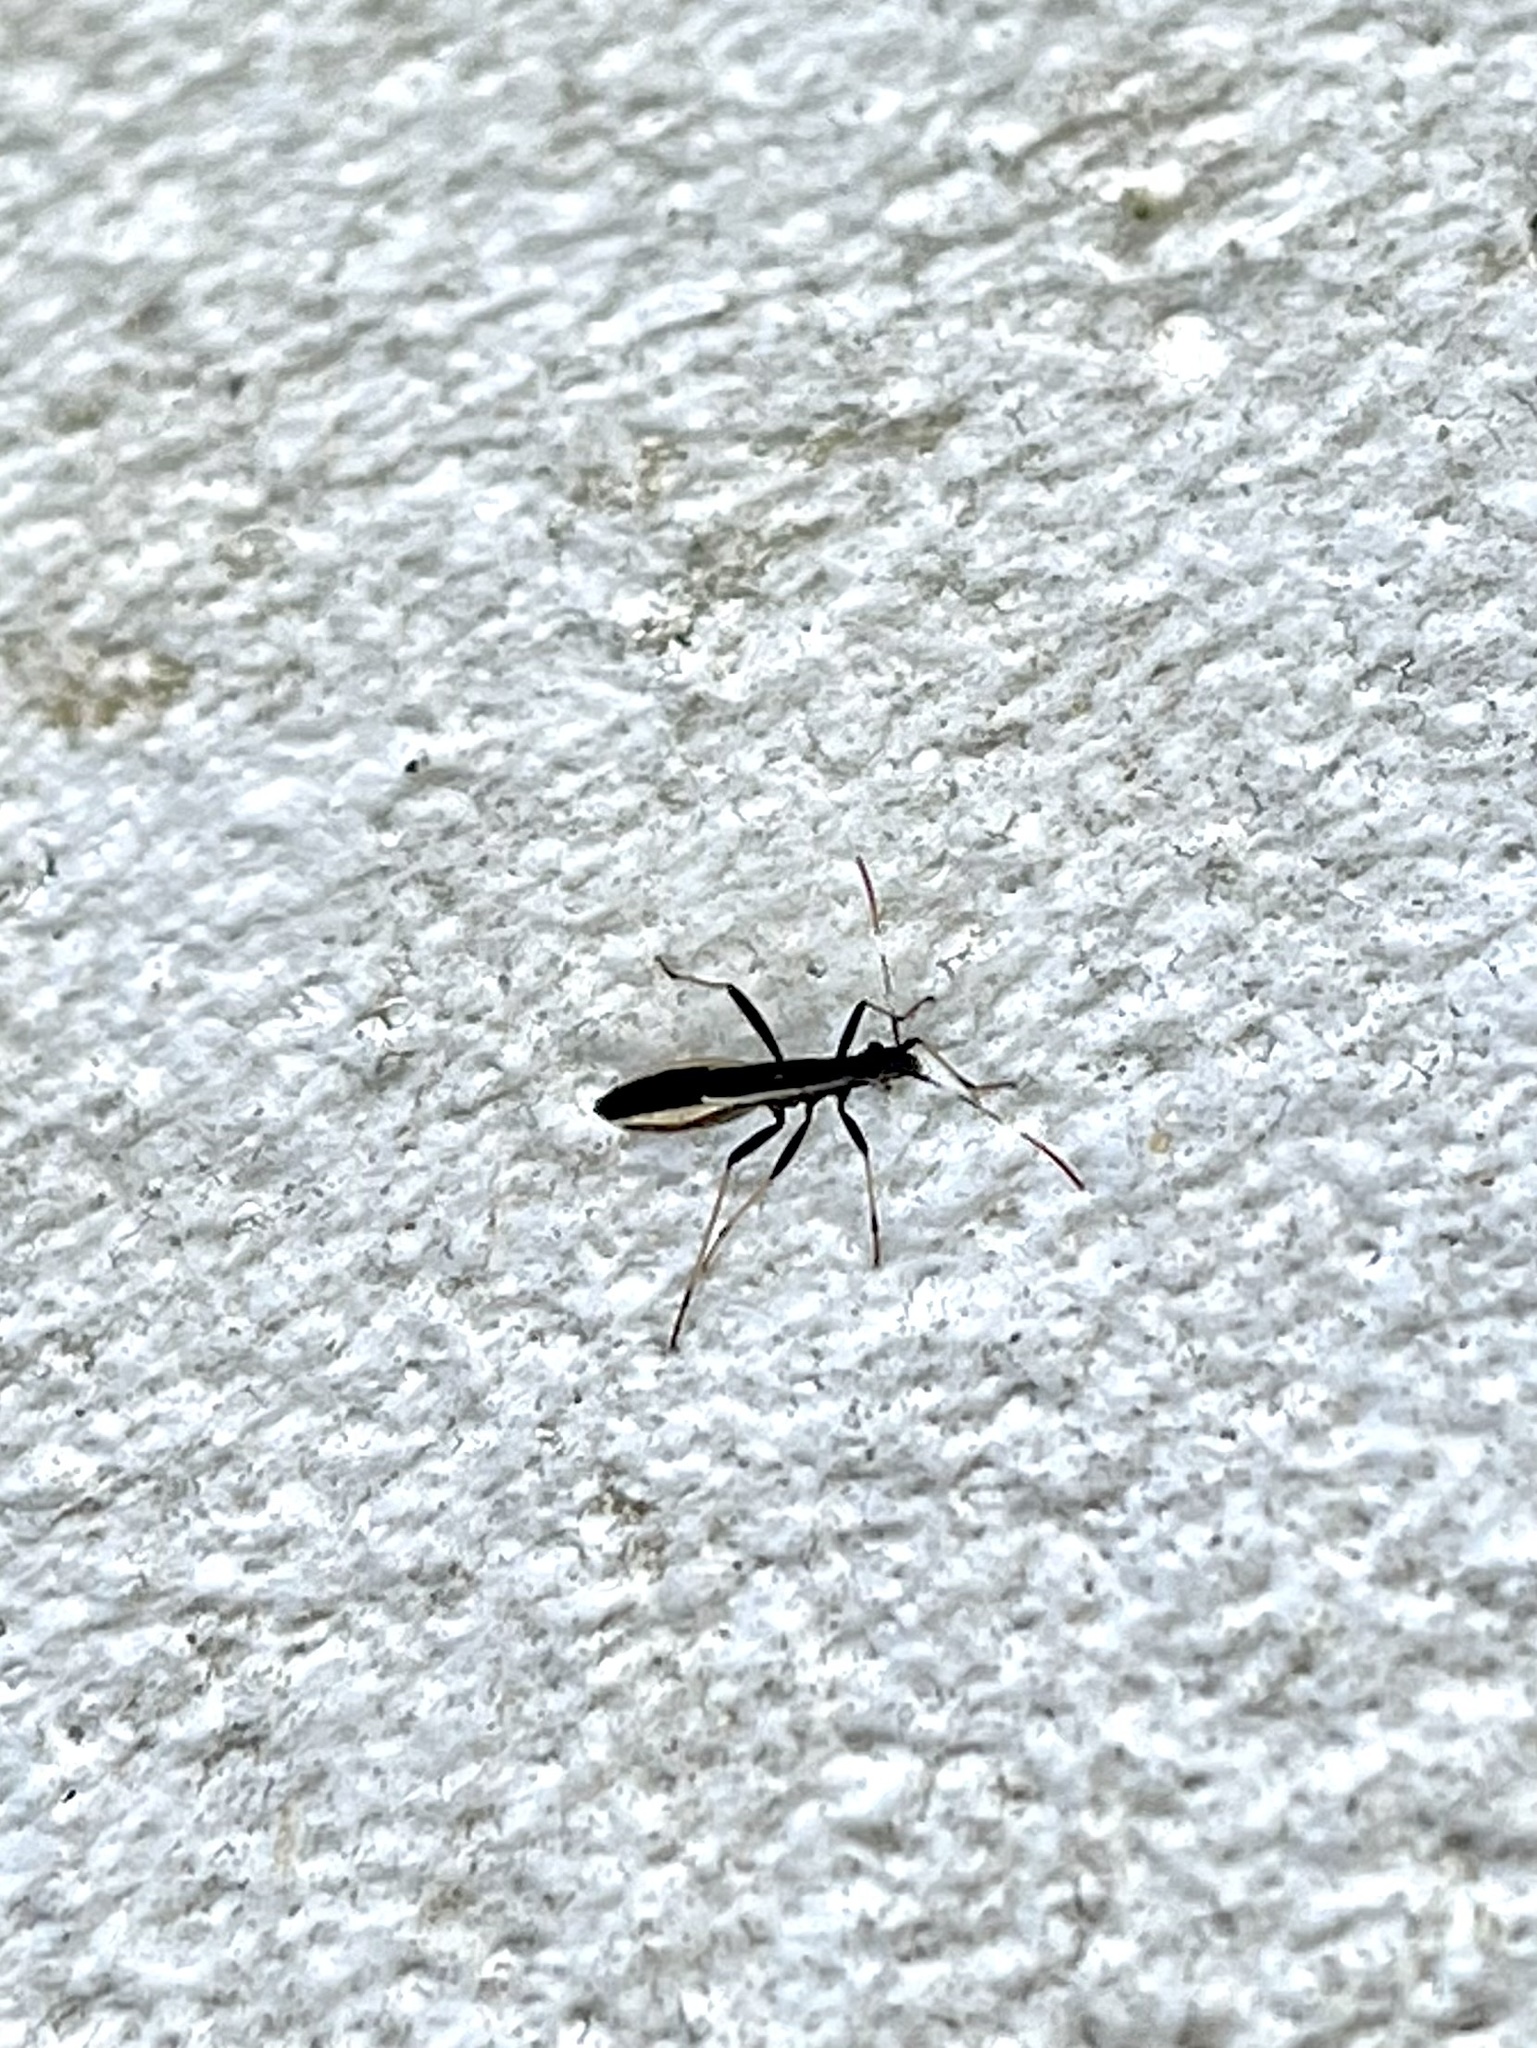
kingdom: Animalia
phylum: Arthropoda
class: Insecta
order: Hemiptera
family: Alydidae
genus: Micrelytra
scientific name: Micrelytra fossularum
